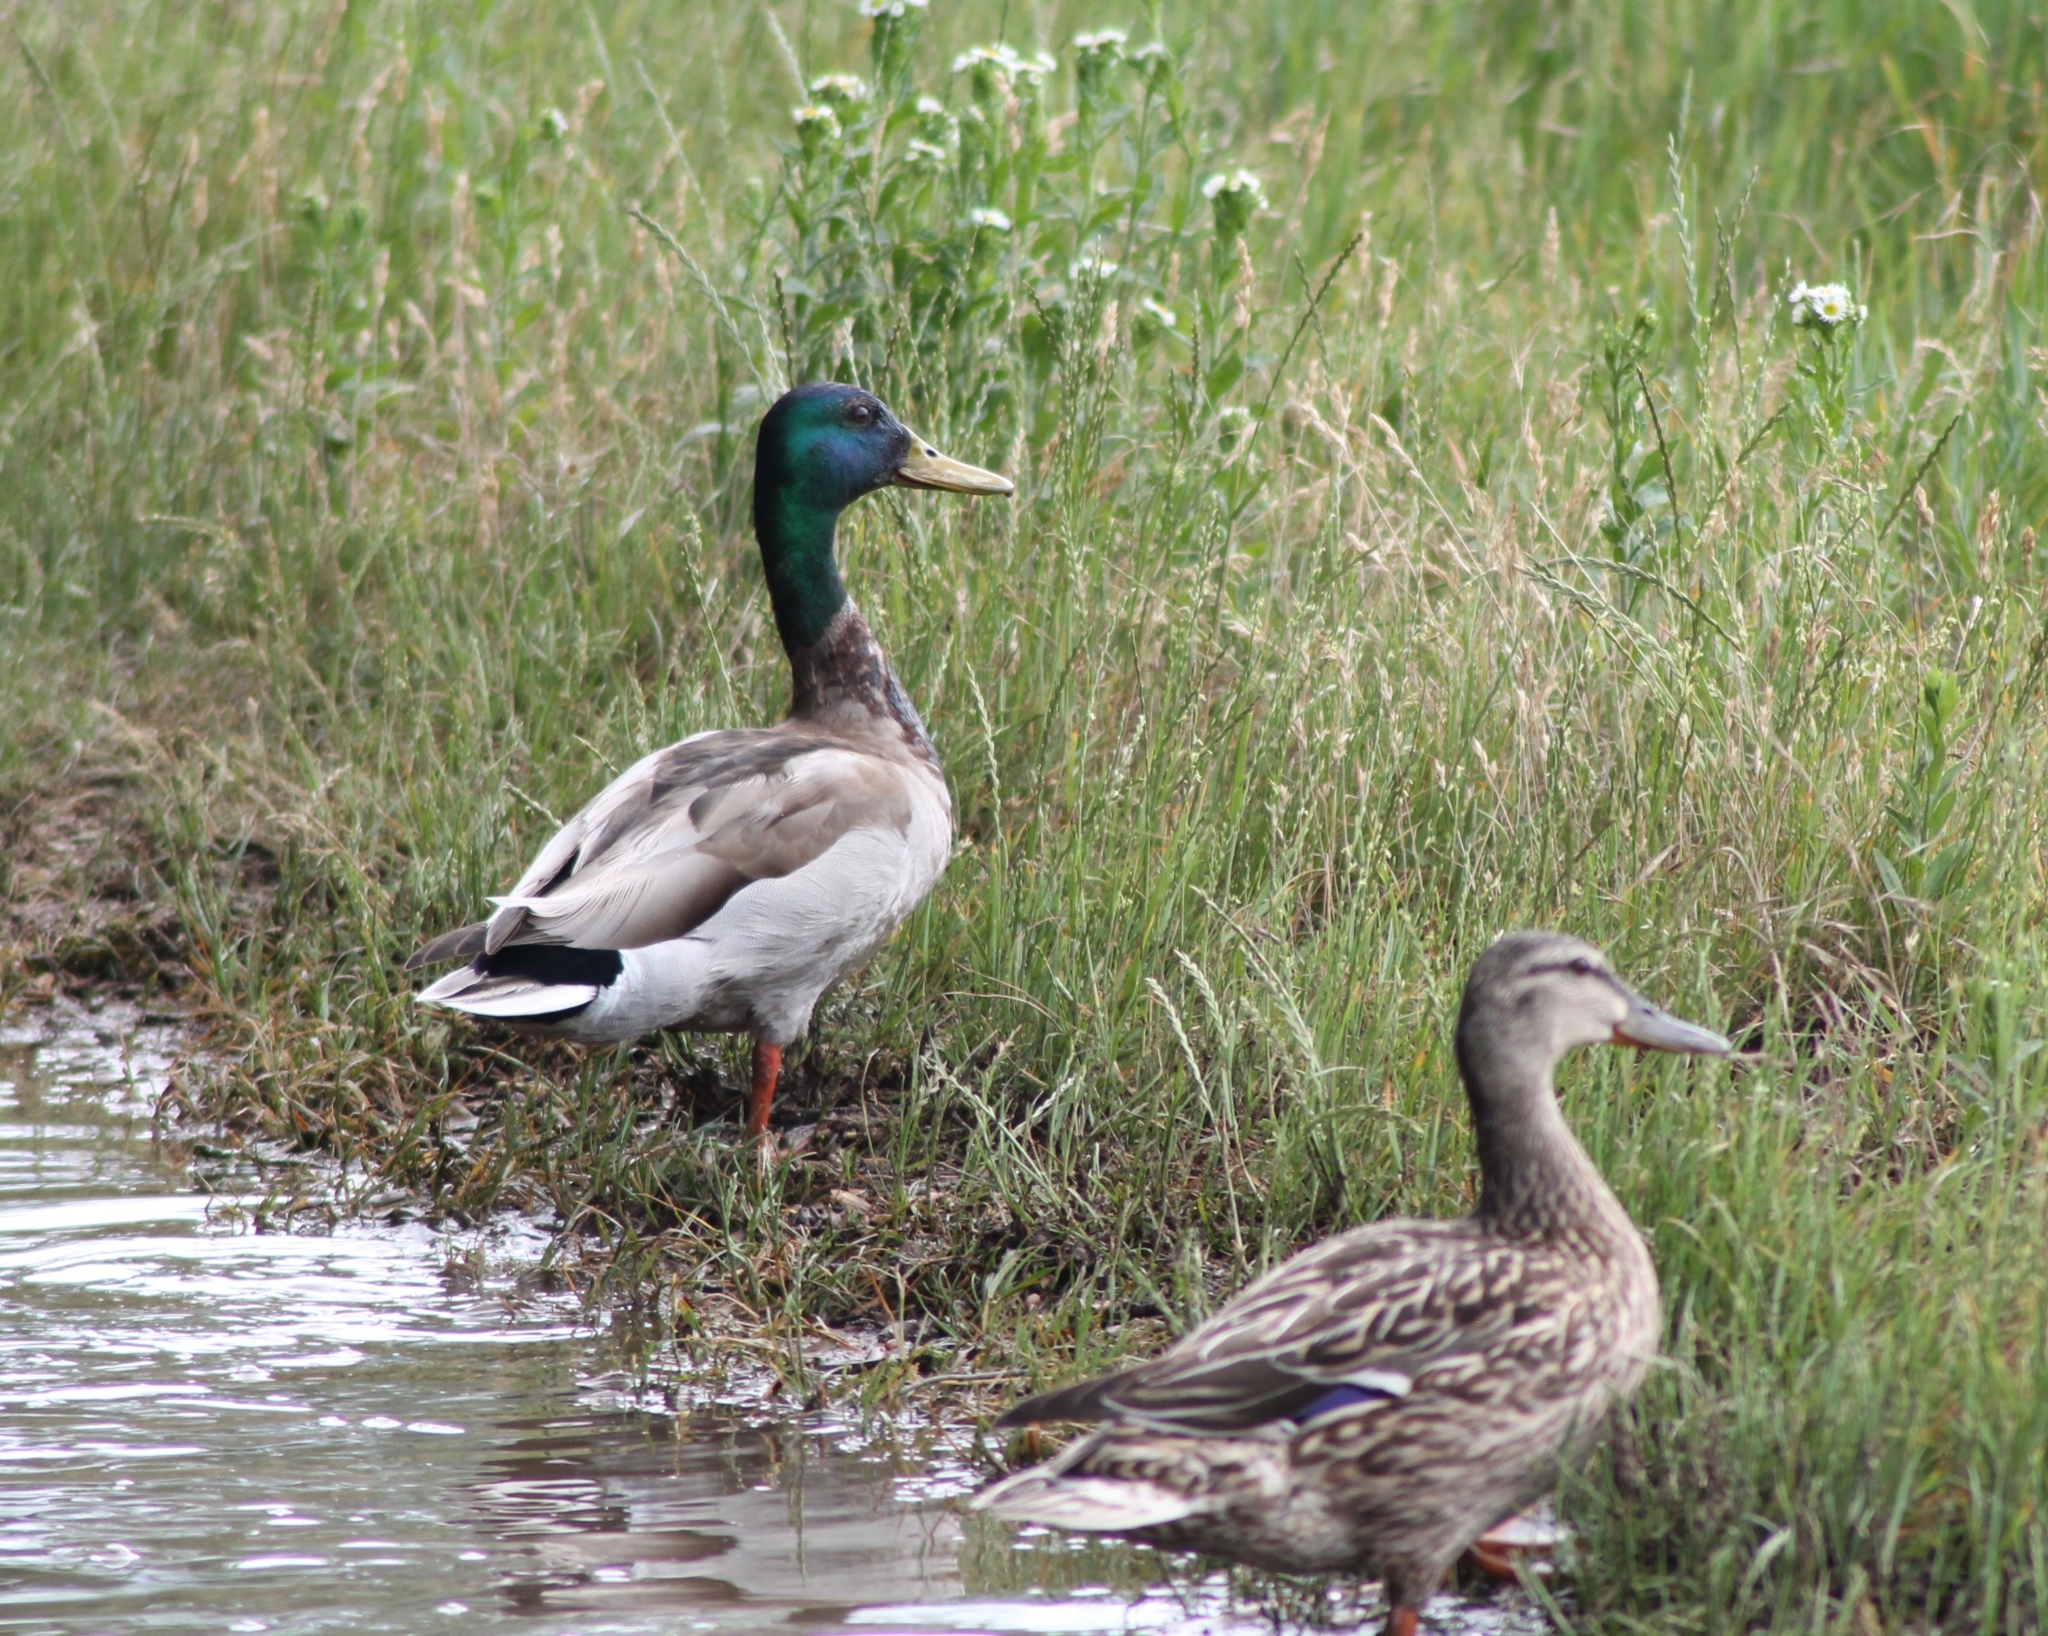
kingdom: Animalia
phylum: Chordata
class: Aves
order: Anseriformes
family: Anatidae
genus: Anas
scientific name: Anas platyrhynchos
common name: Mallard
